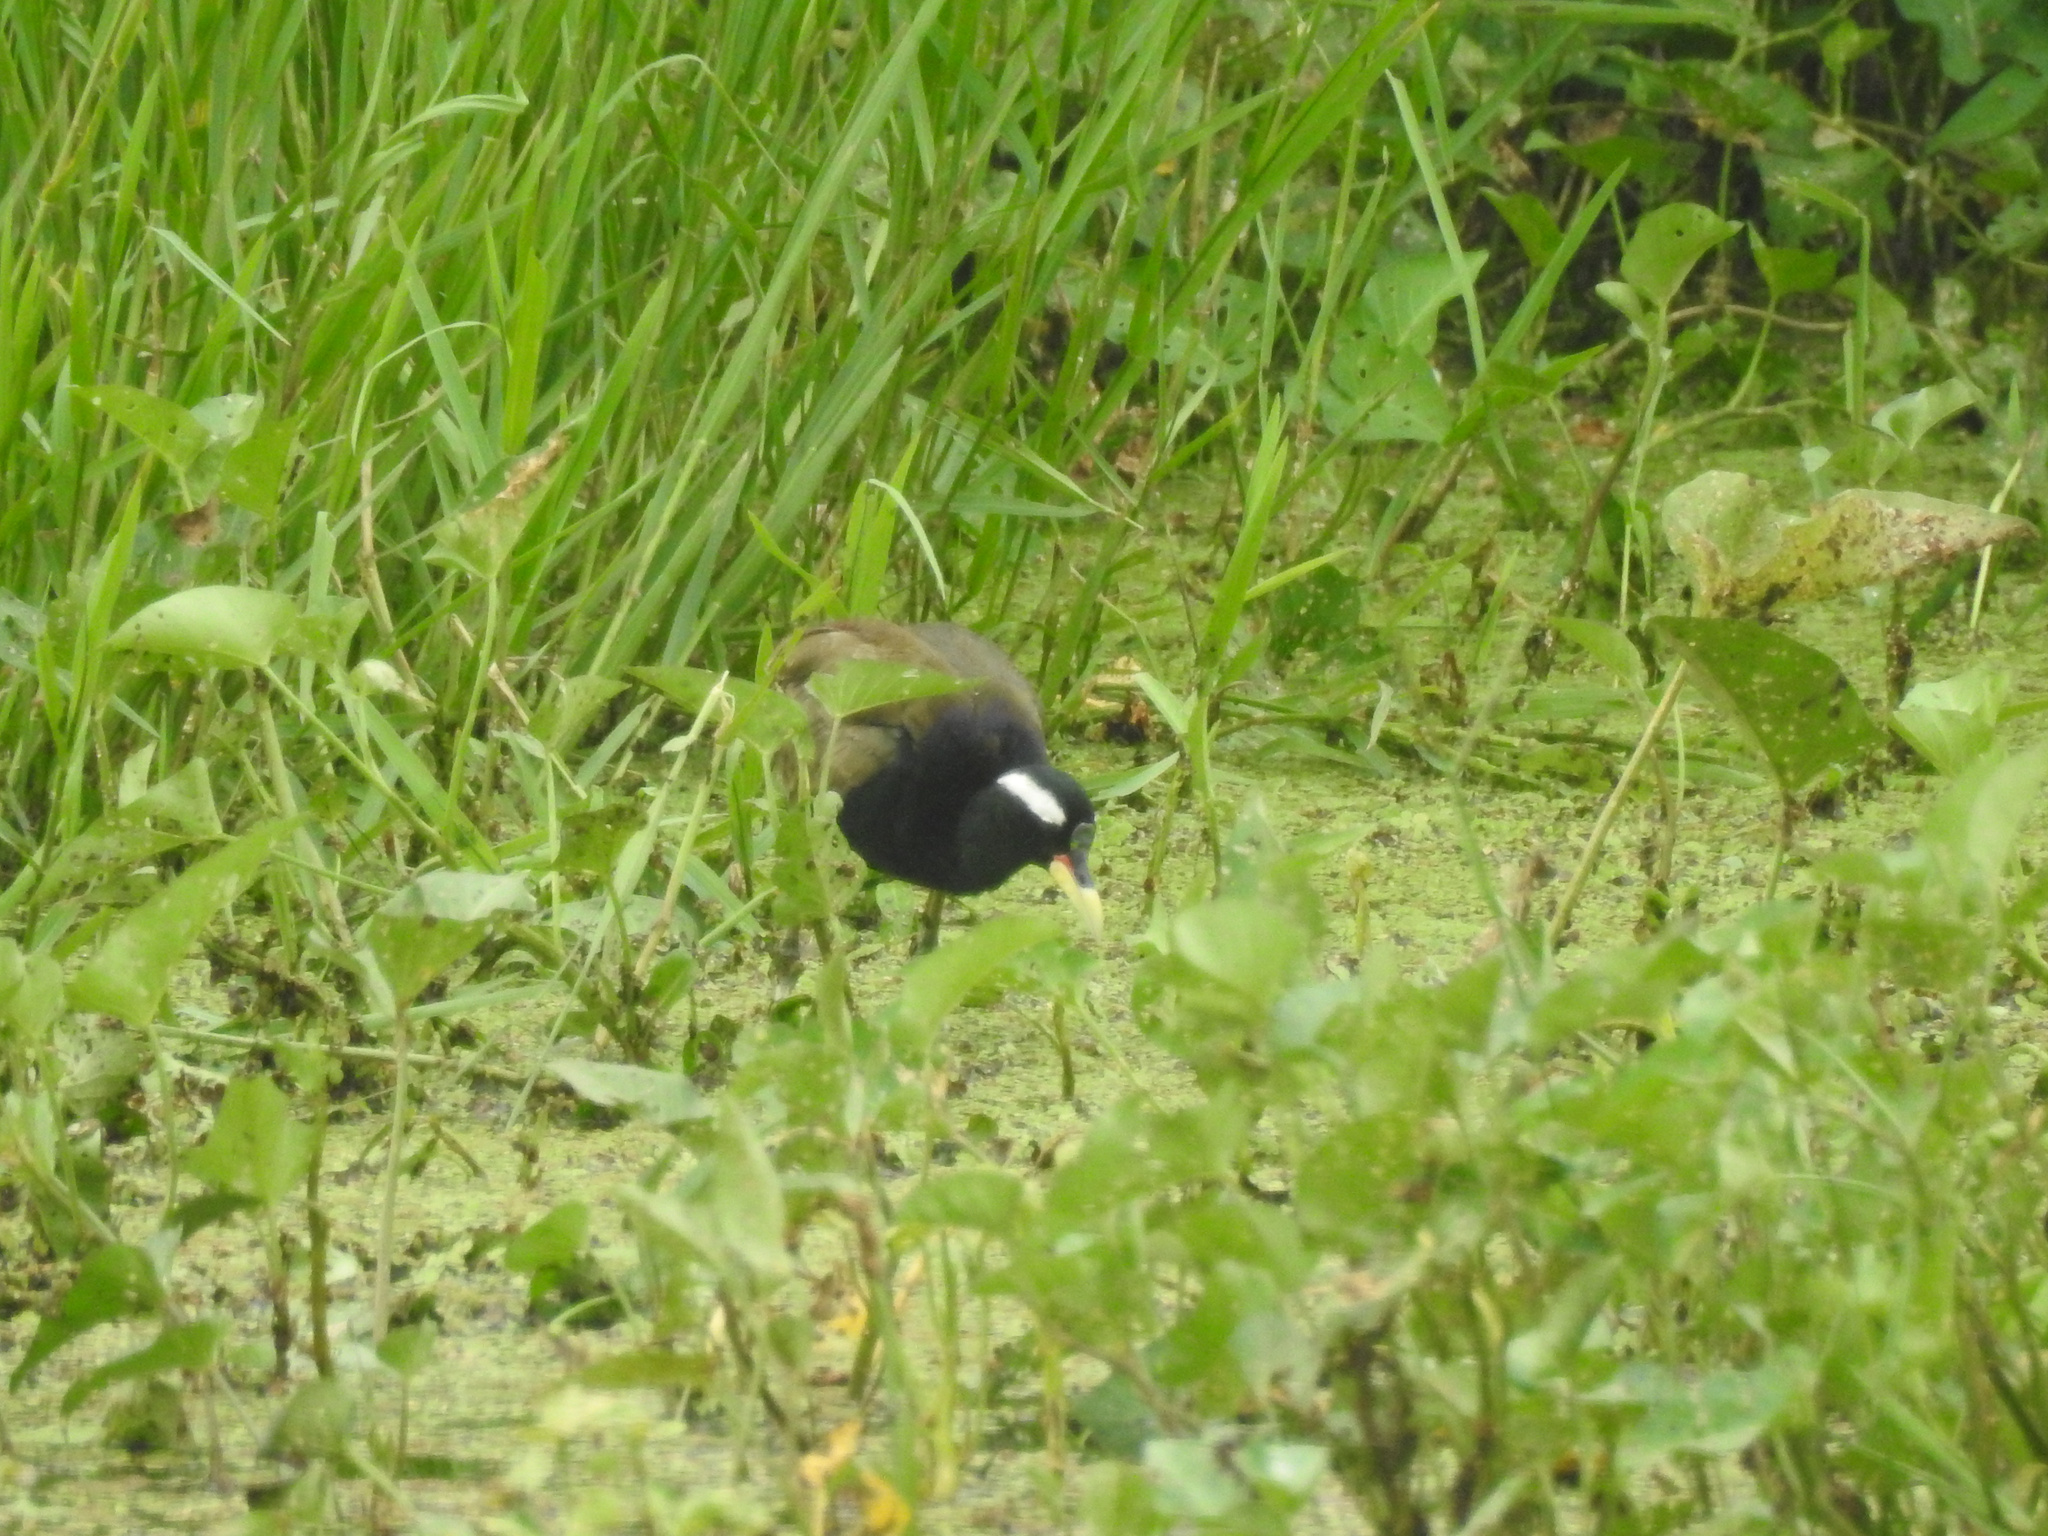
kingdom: Animalia
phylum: Chordata
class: Aves
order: Charadriiformes
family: Jacanidae
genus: Metopidius
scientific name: Metopidius indicus
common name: Bronze-winged jacana
